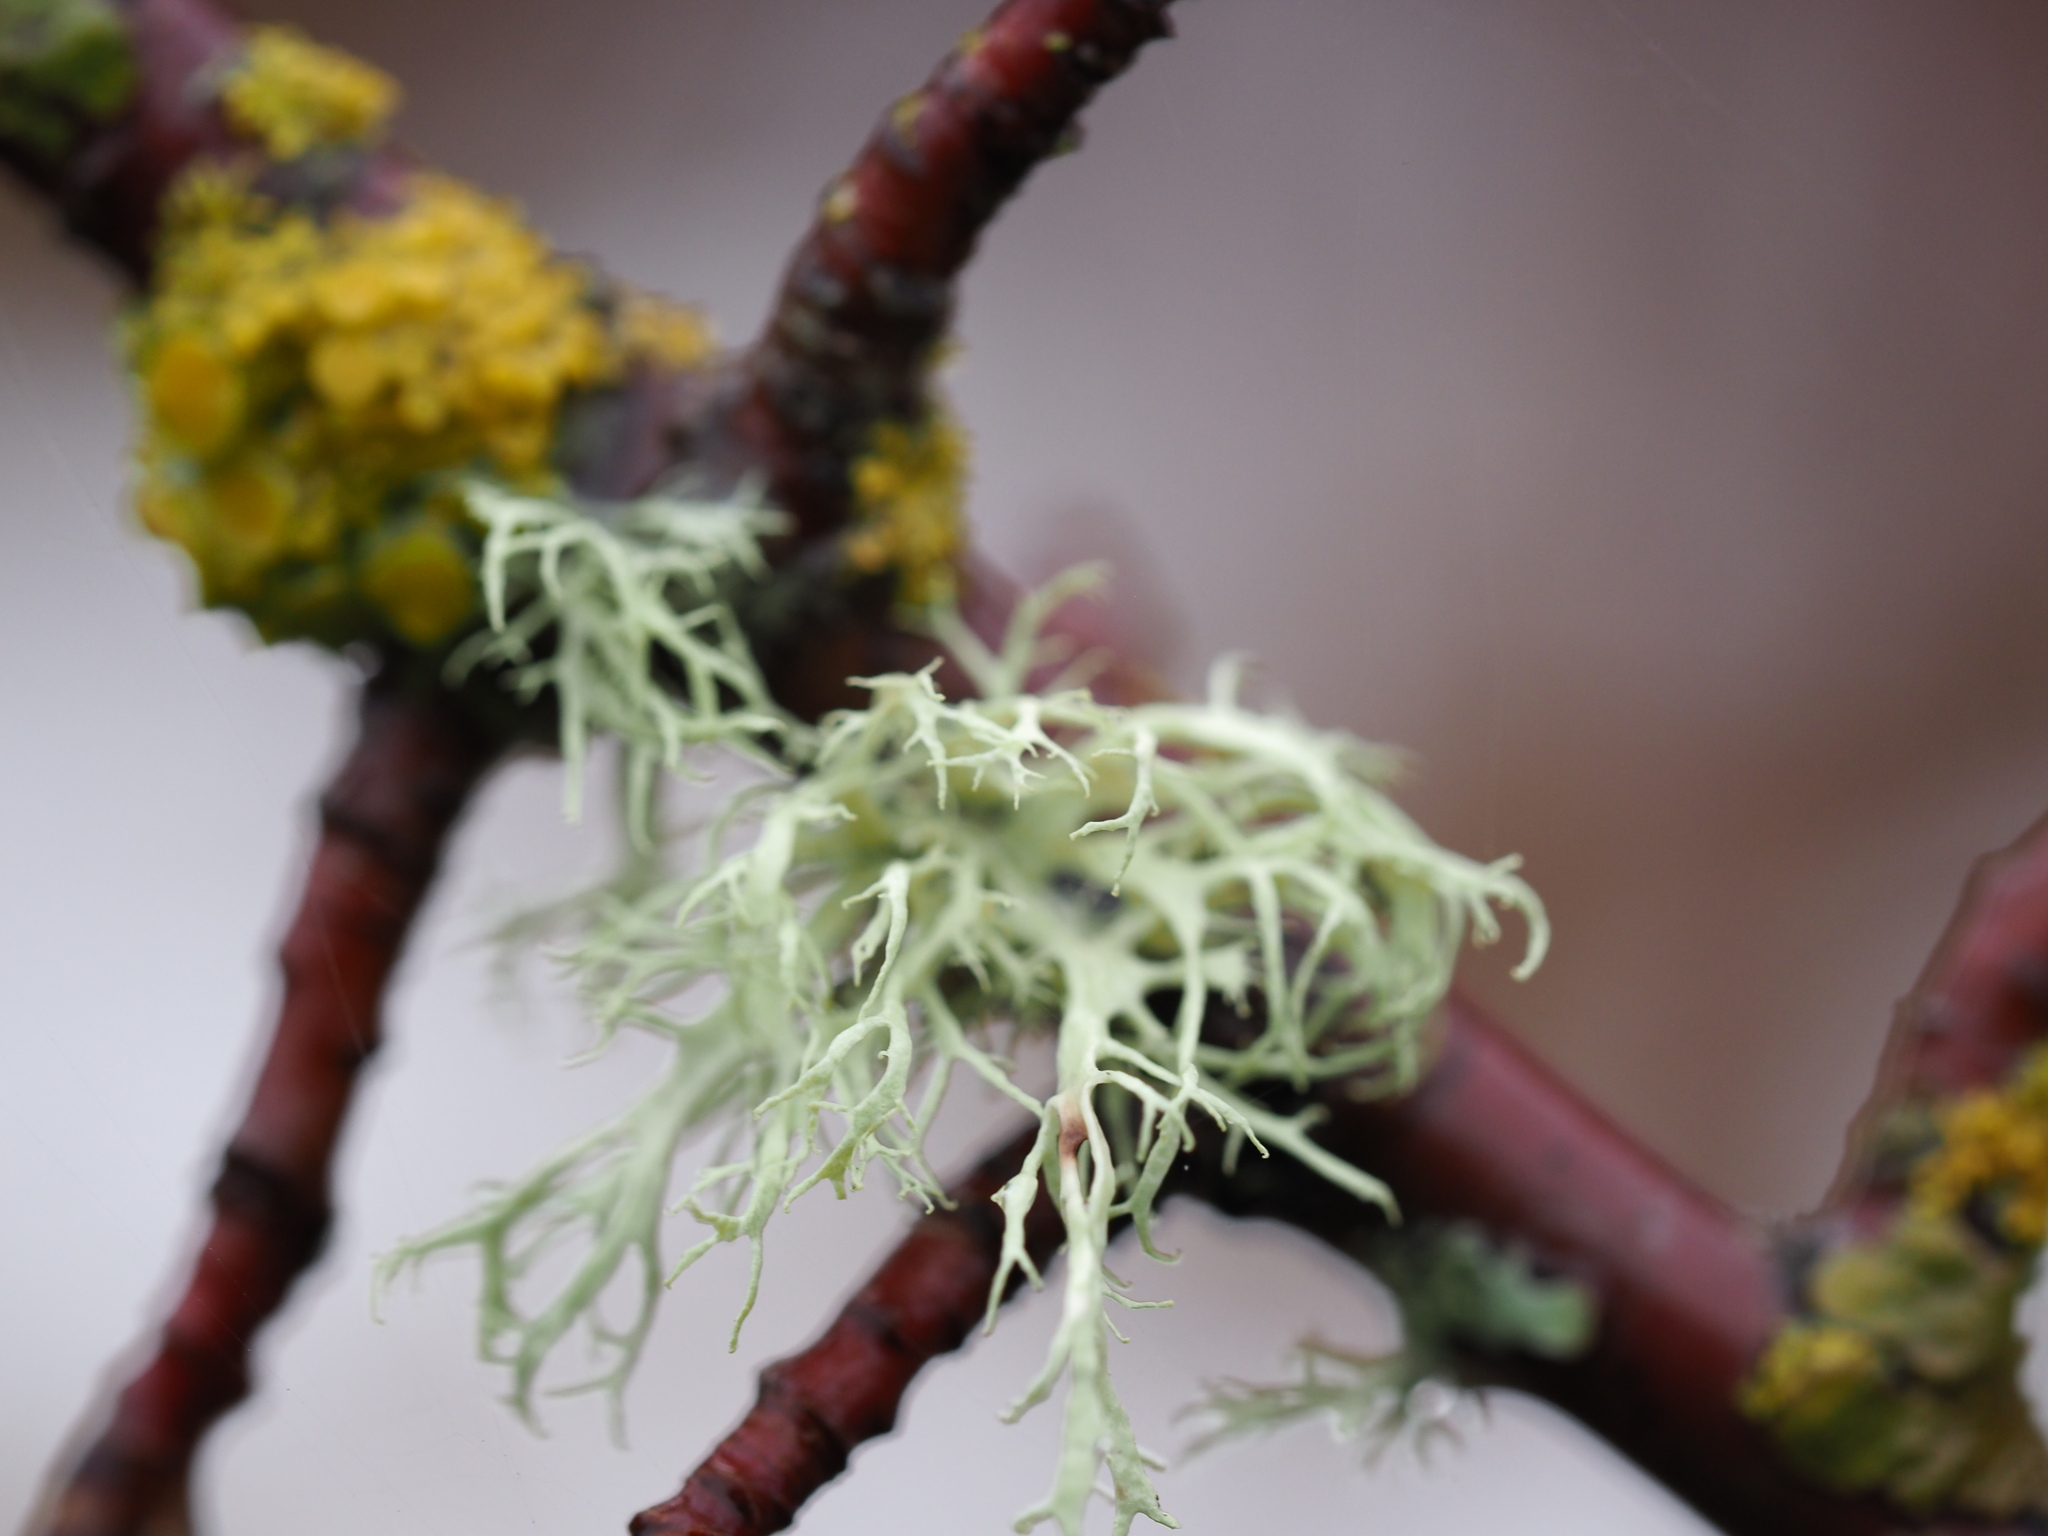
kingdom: Fungi
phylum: Ascomycota
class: Lecanoromycetes
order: Lecanorales
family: Ramalinaceae
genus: Ramalina
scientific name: Ramalina farinacea
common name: Farinose cartilage lichen
